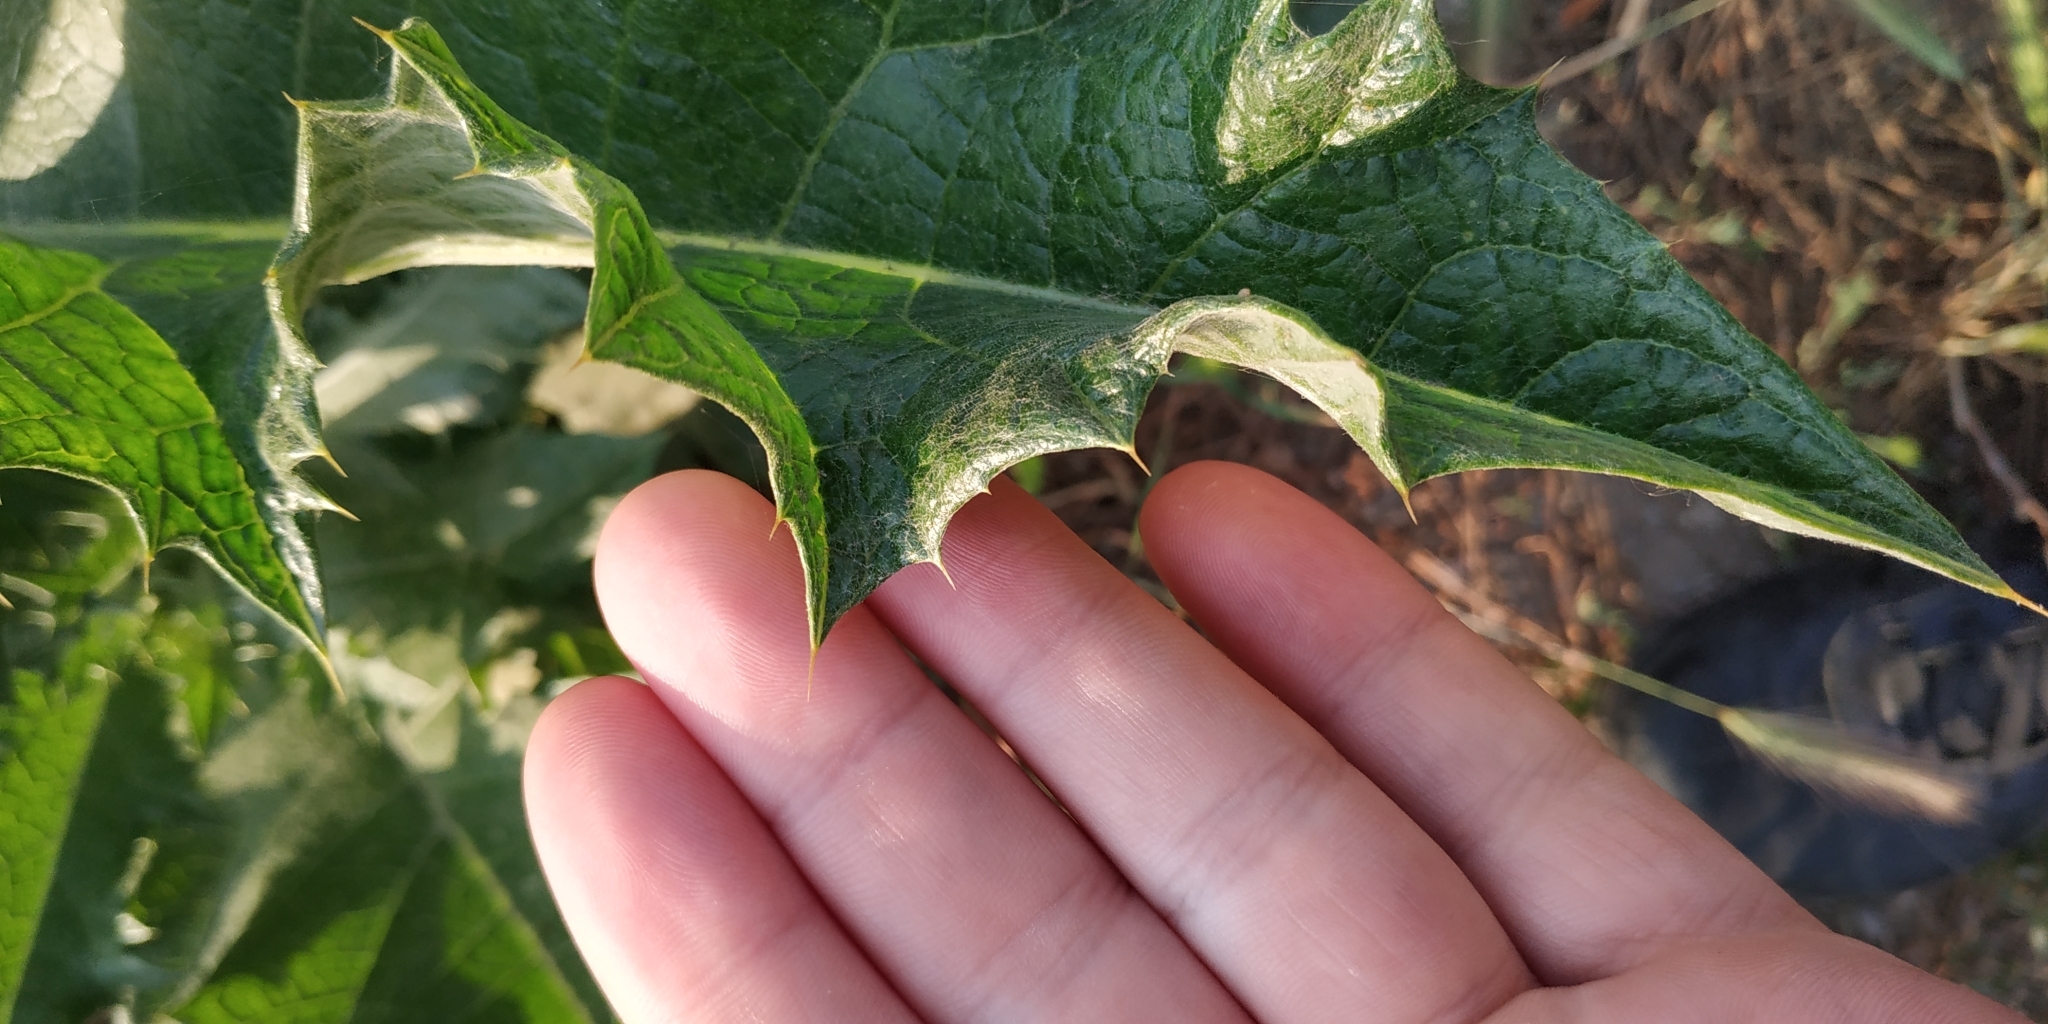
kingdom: Plantae
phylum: Tracheophyta
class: Magnoliopsida
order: Asterales
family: Asteraceae
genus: Onopordum
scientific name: Onopordum tauricum
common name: Bull cottonthistle
